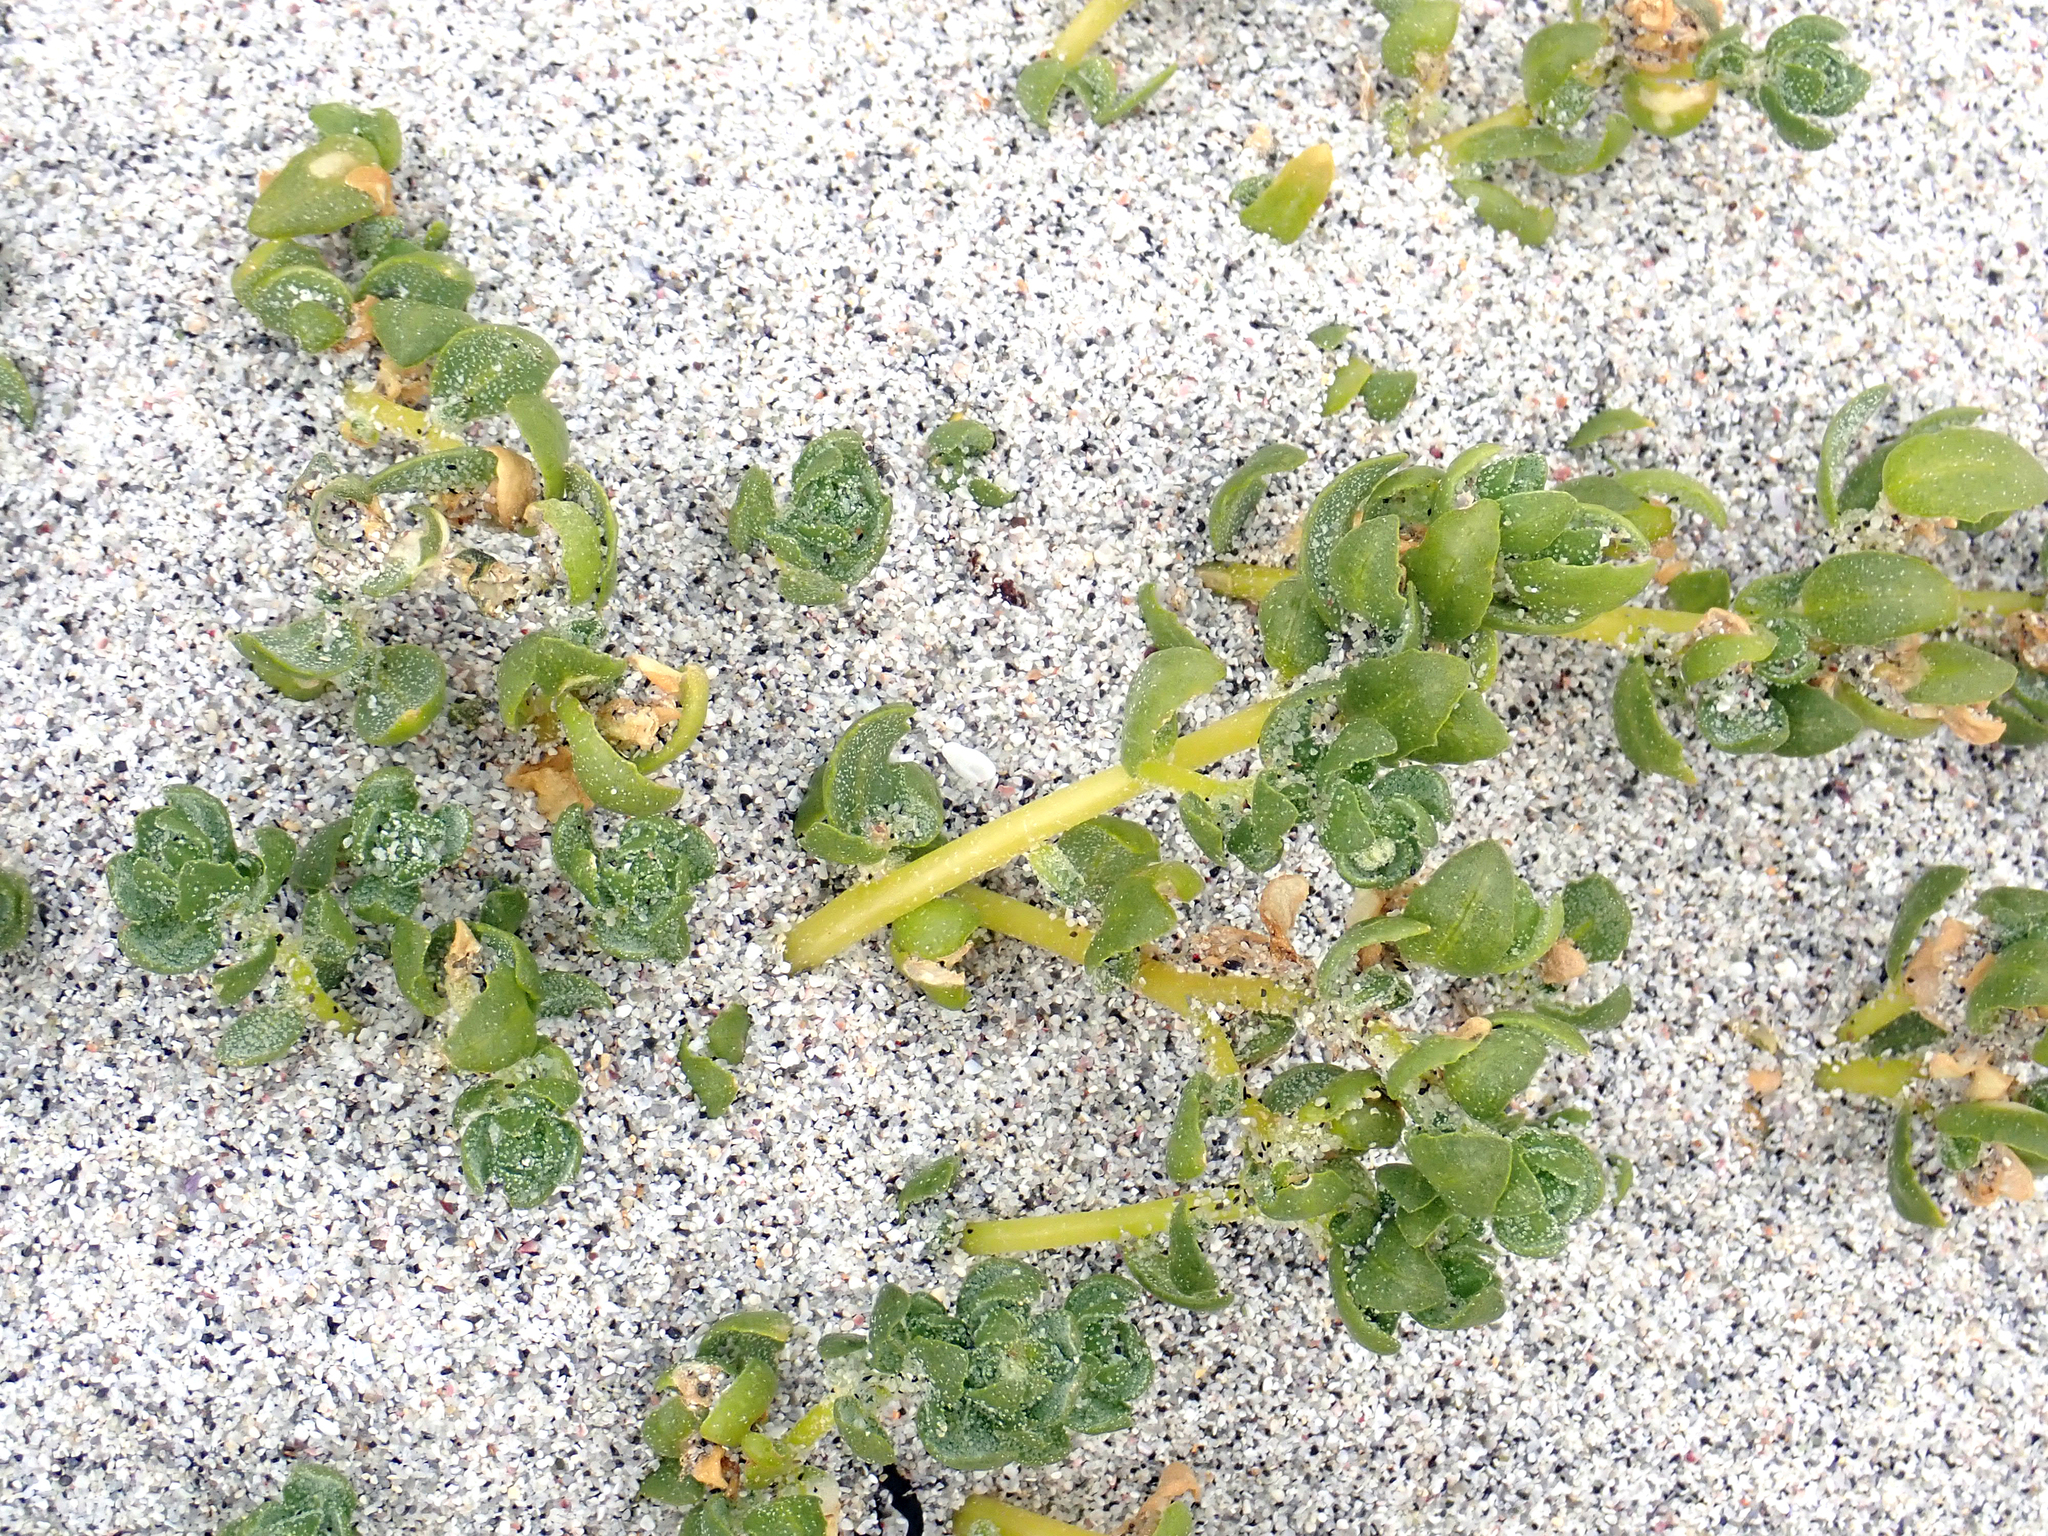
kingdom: Plantae
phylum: Tracheophyta
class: Magnoliopsida
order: Caryophyllales
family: Amaranthaceae
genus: Atriplex
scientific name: Atriplex billardierei
